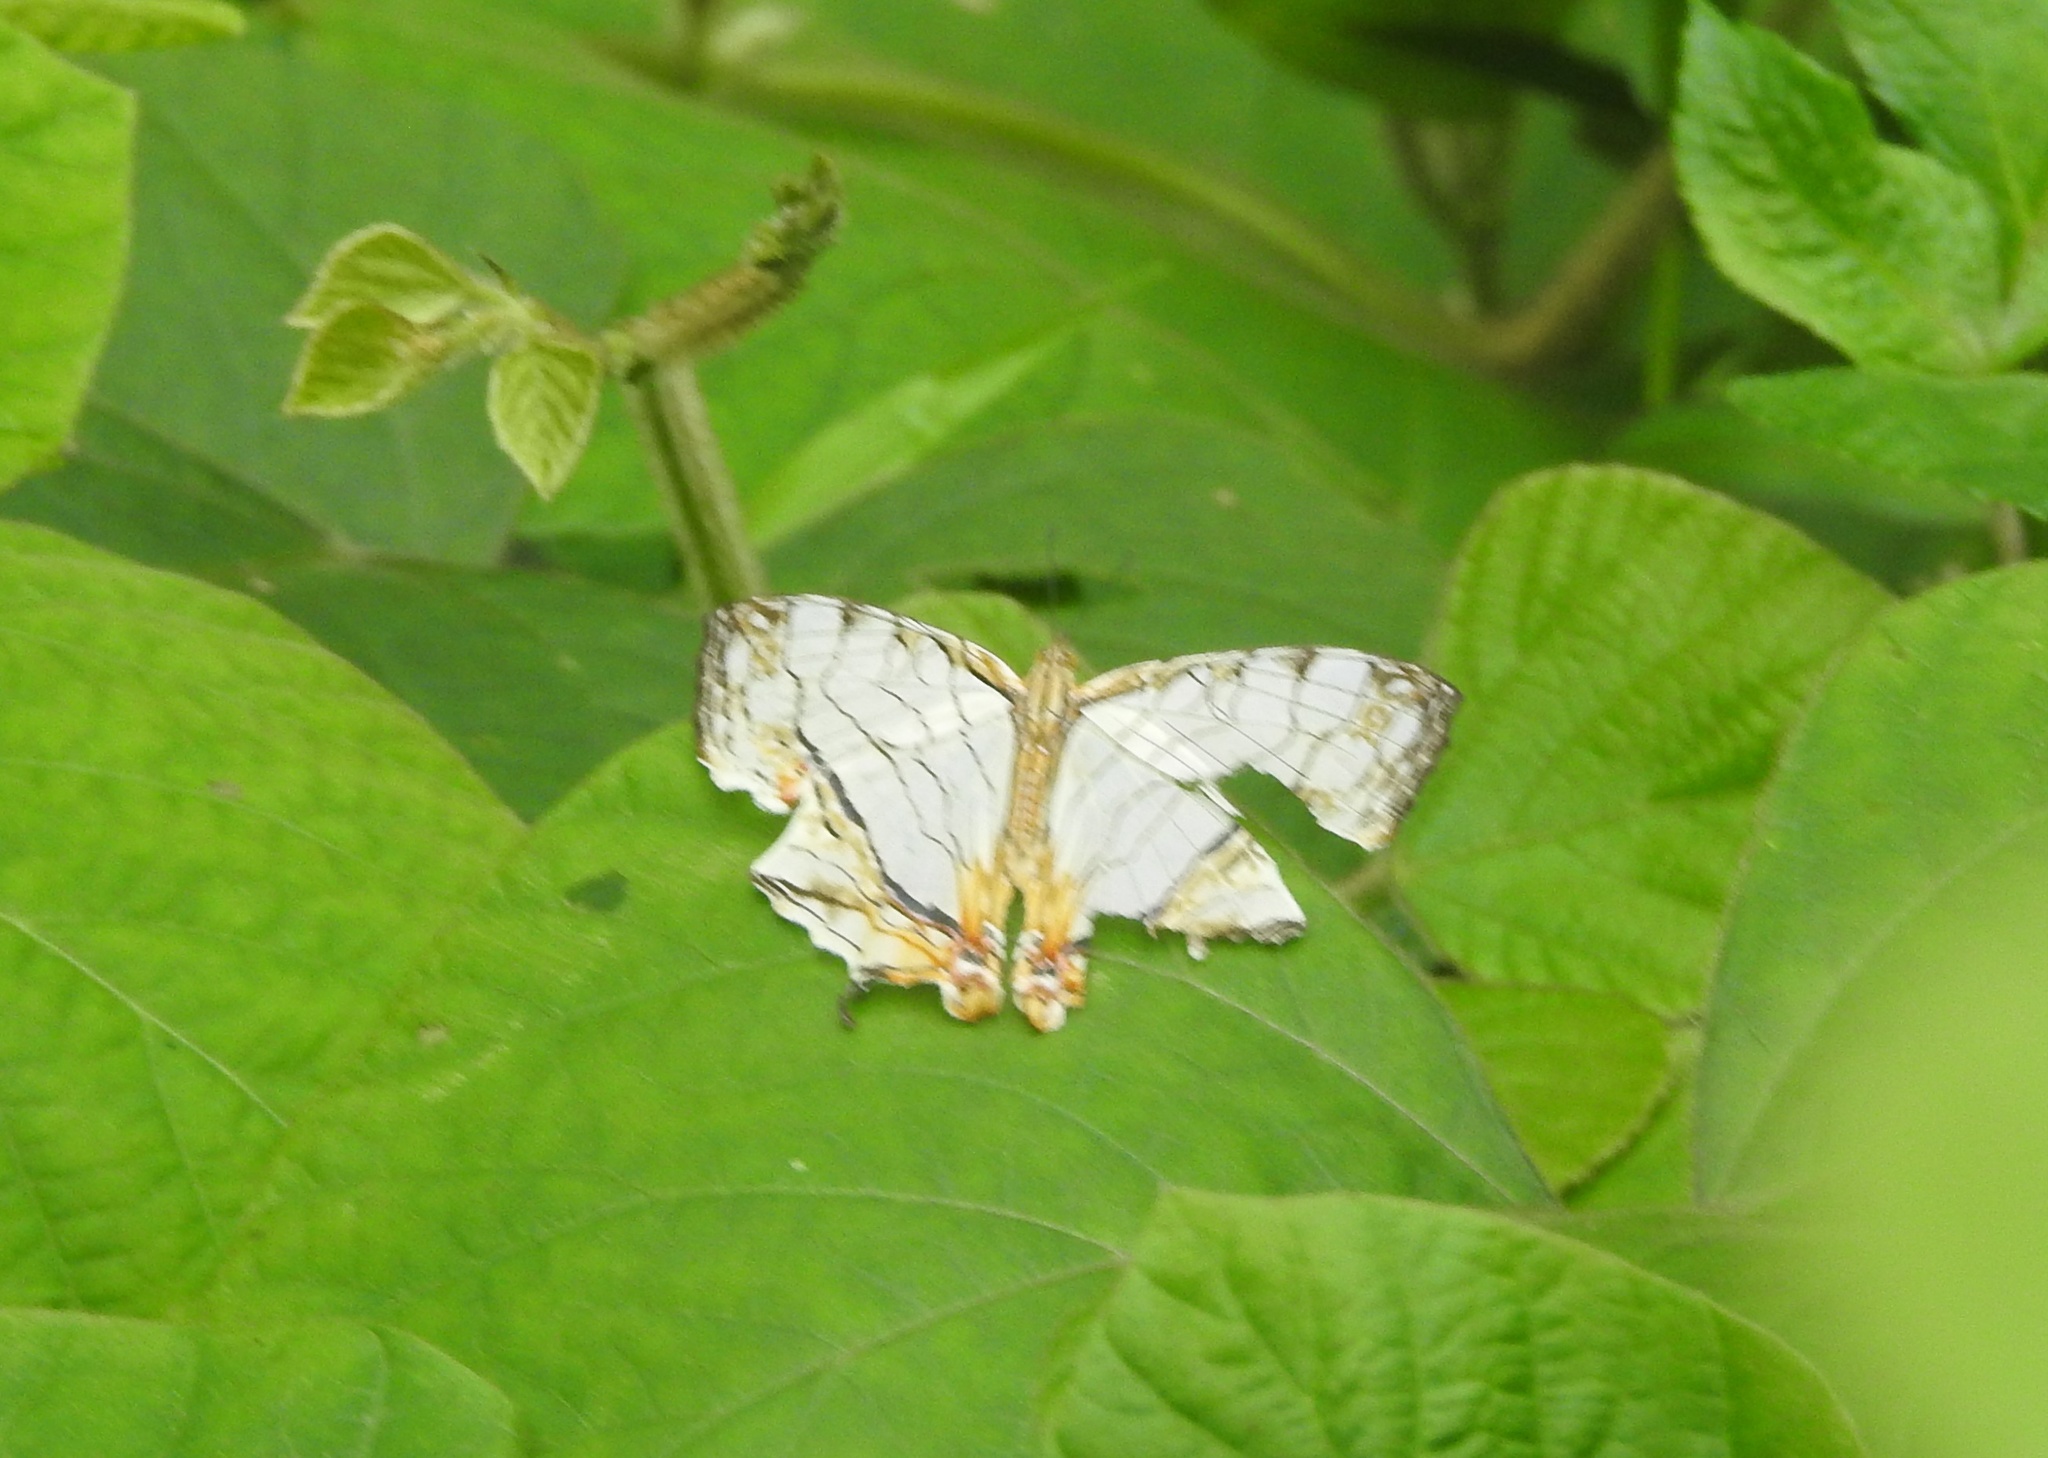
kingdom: Animalia
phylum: Arthropoda
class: Insecta
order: Lepidoptera
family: Nymphalidae
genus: Cyrestis
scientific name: Cyrestis thyodamas
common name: Common mapwing
